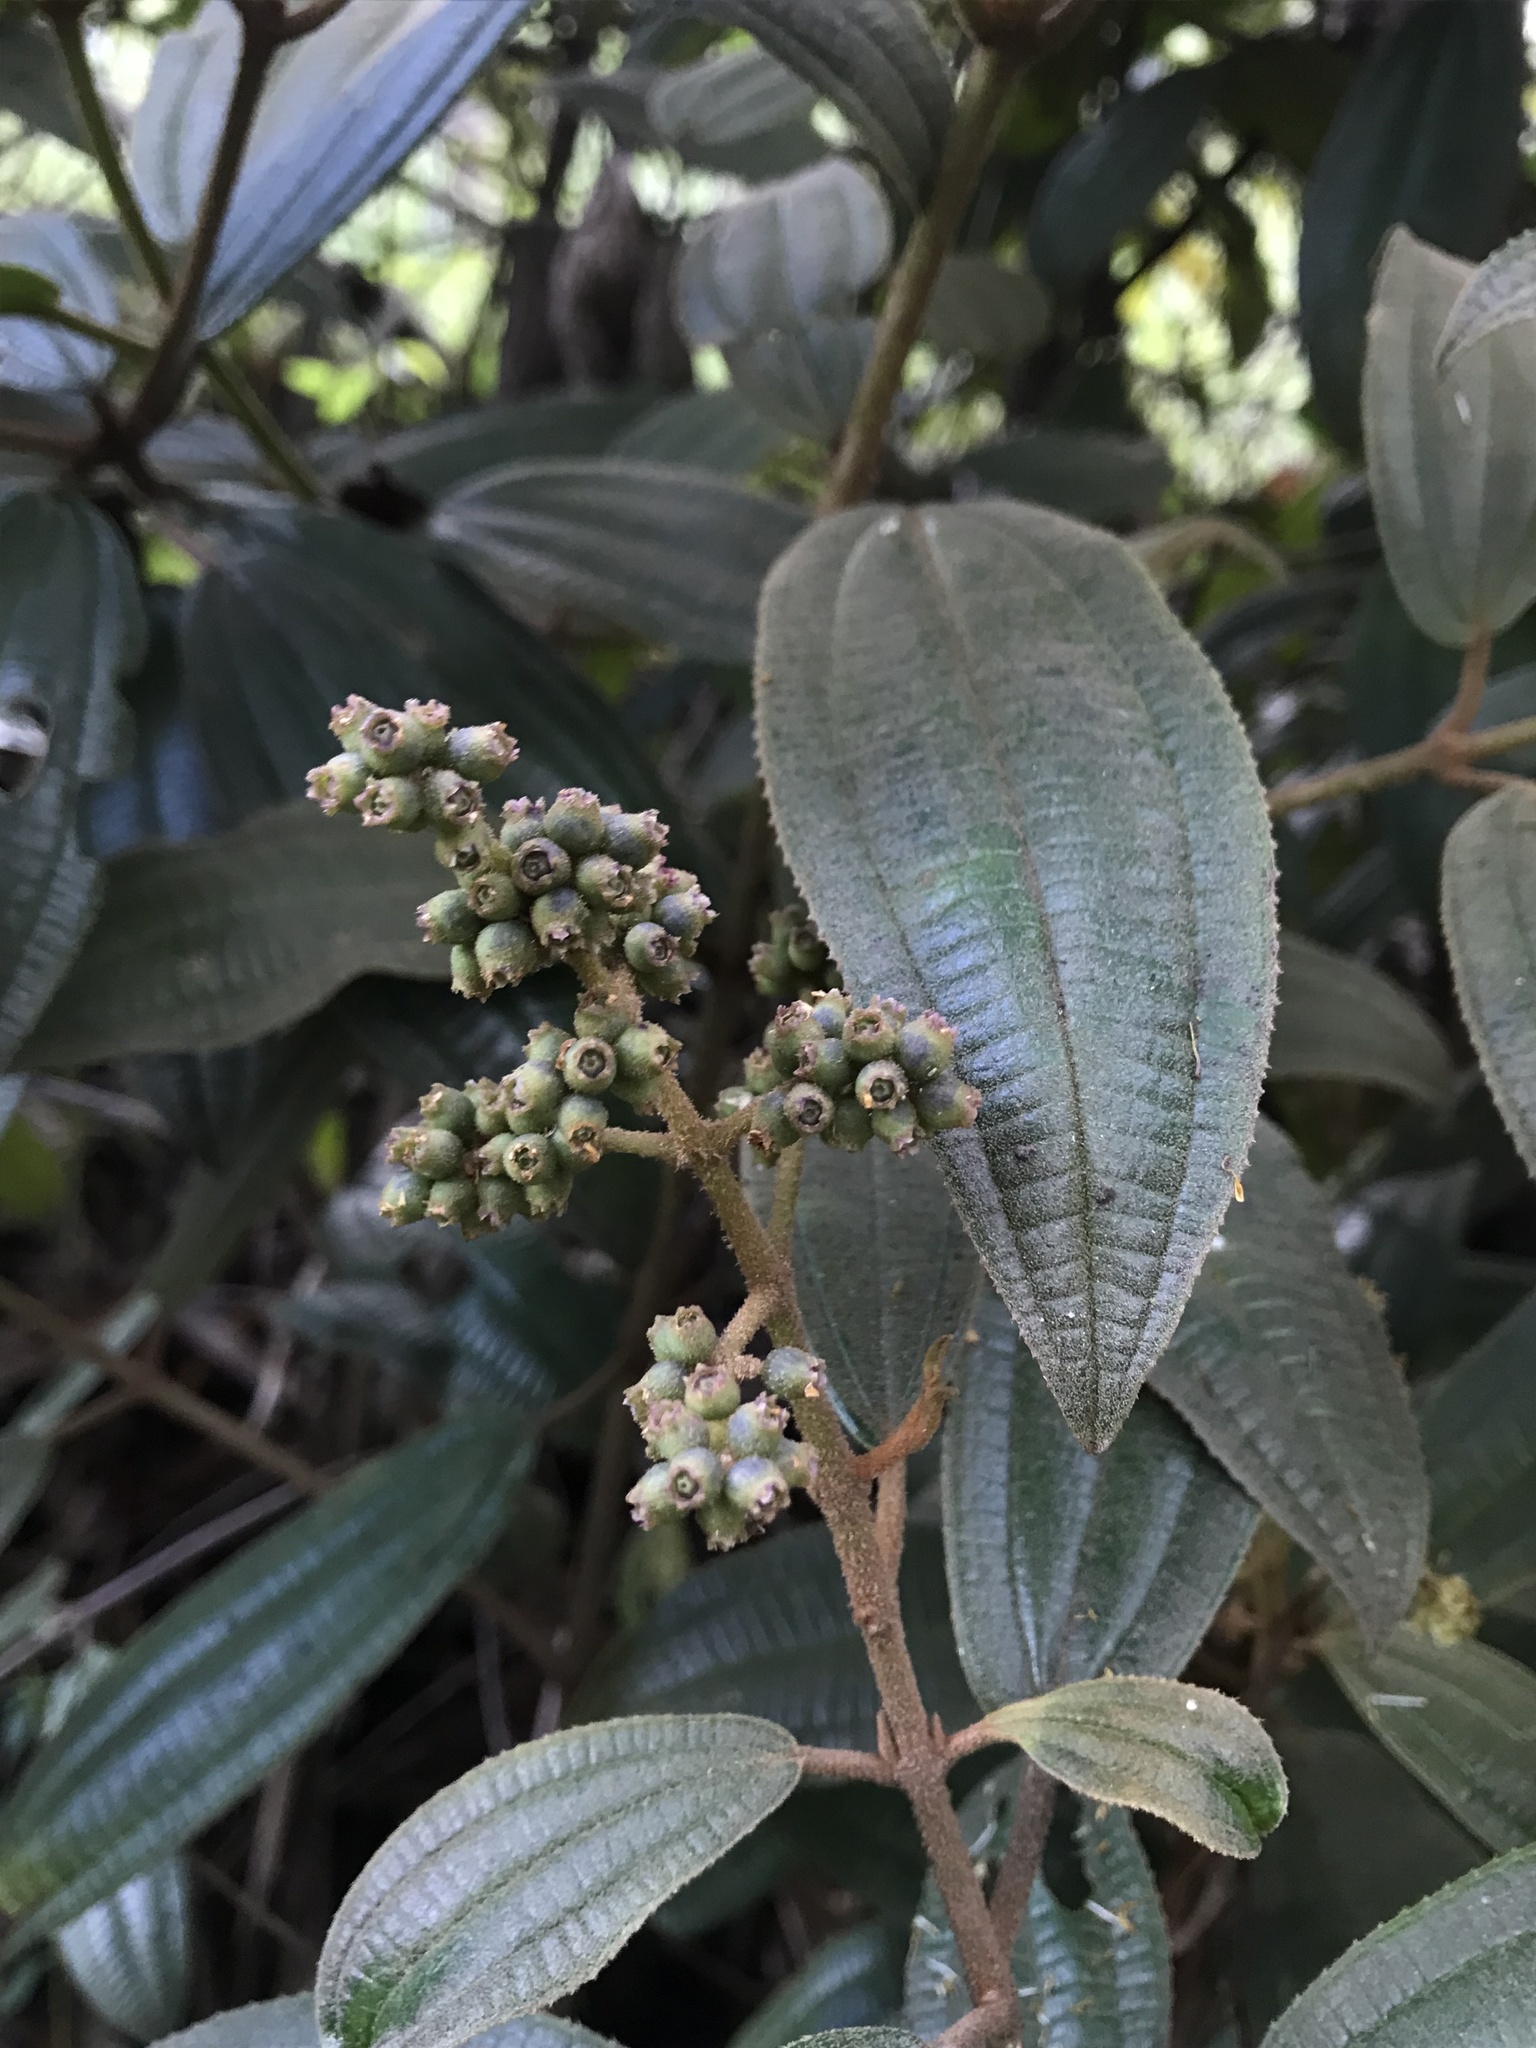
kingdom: Plantae
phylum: Tracheophyta
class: Magnoliopsida
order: Myrtales
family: Melastomataceae
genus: Miconia
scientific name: Miconia cataractae
